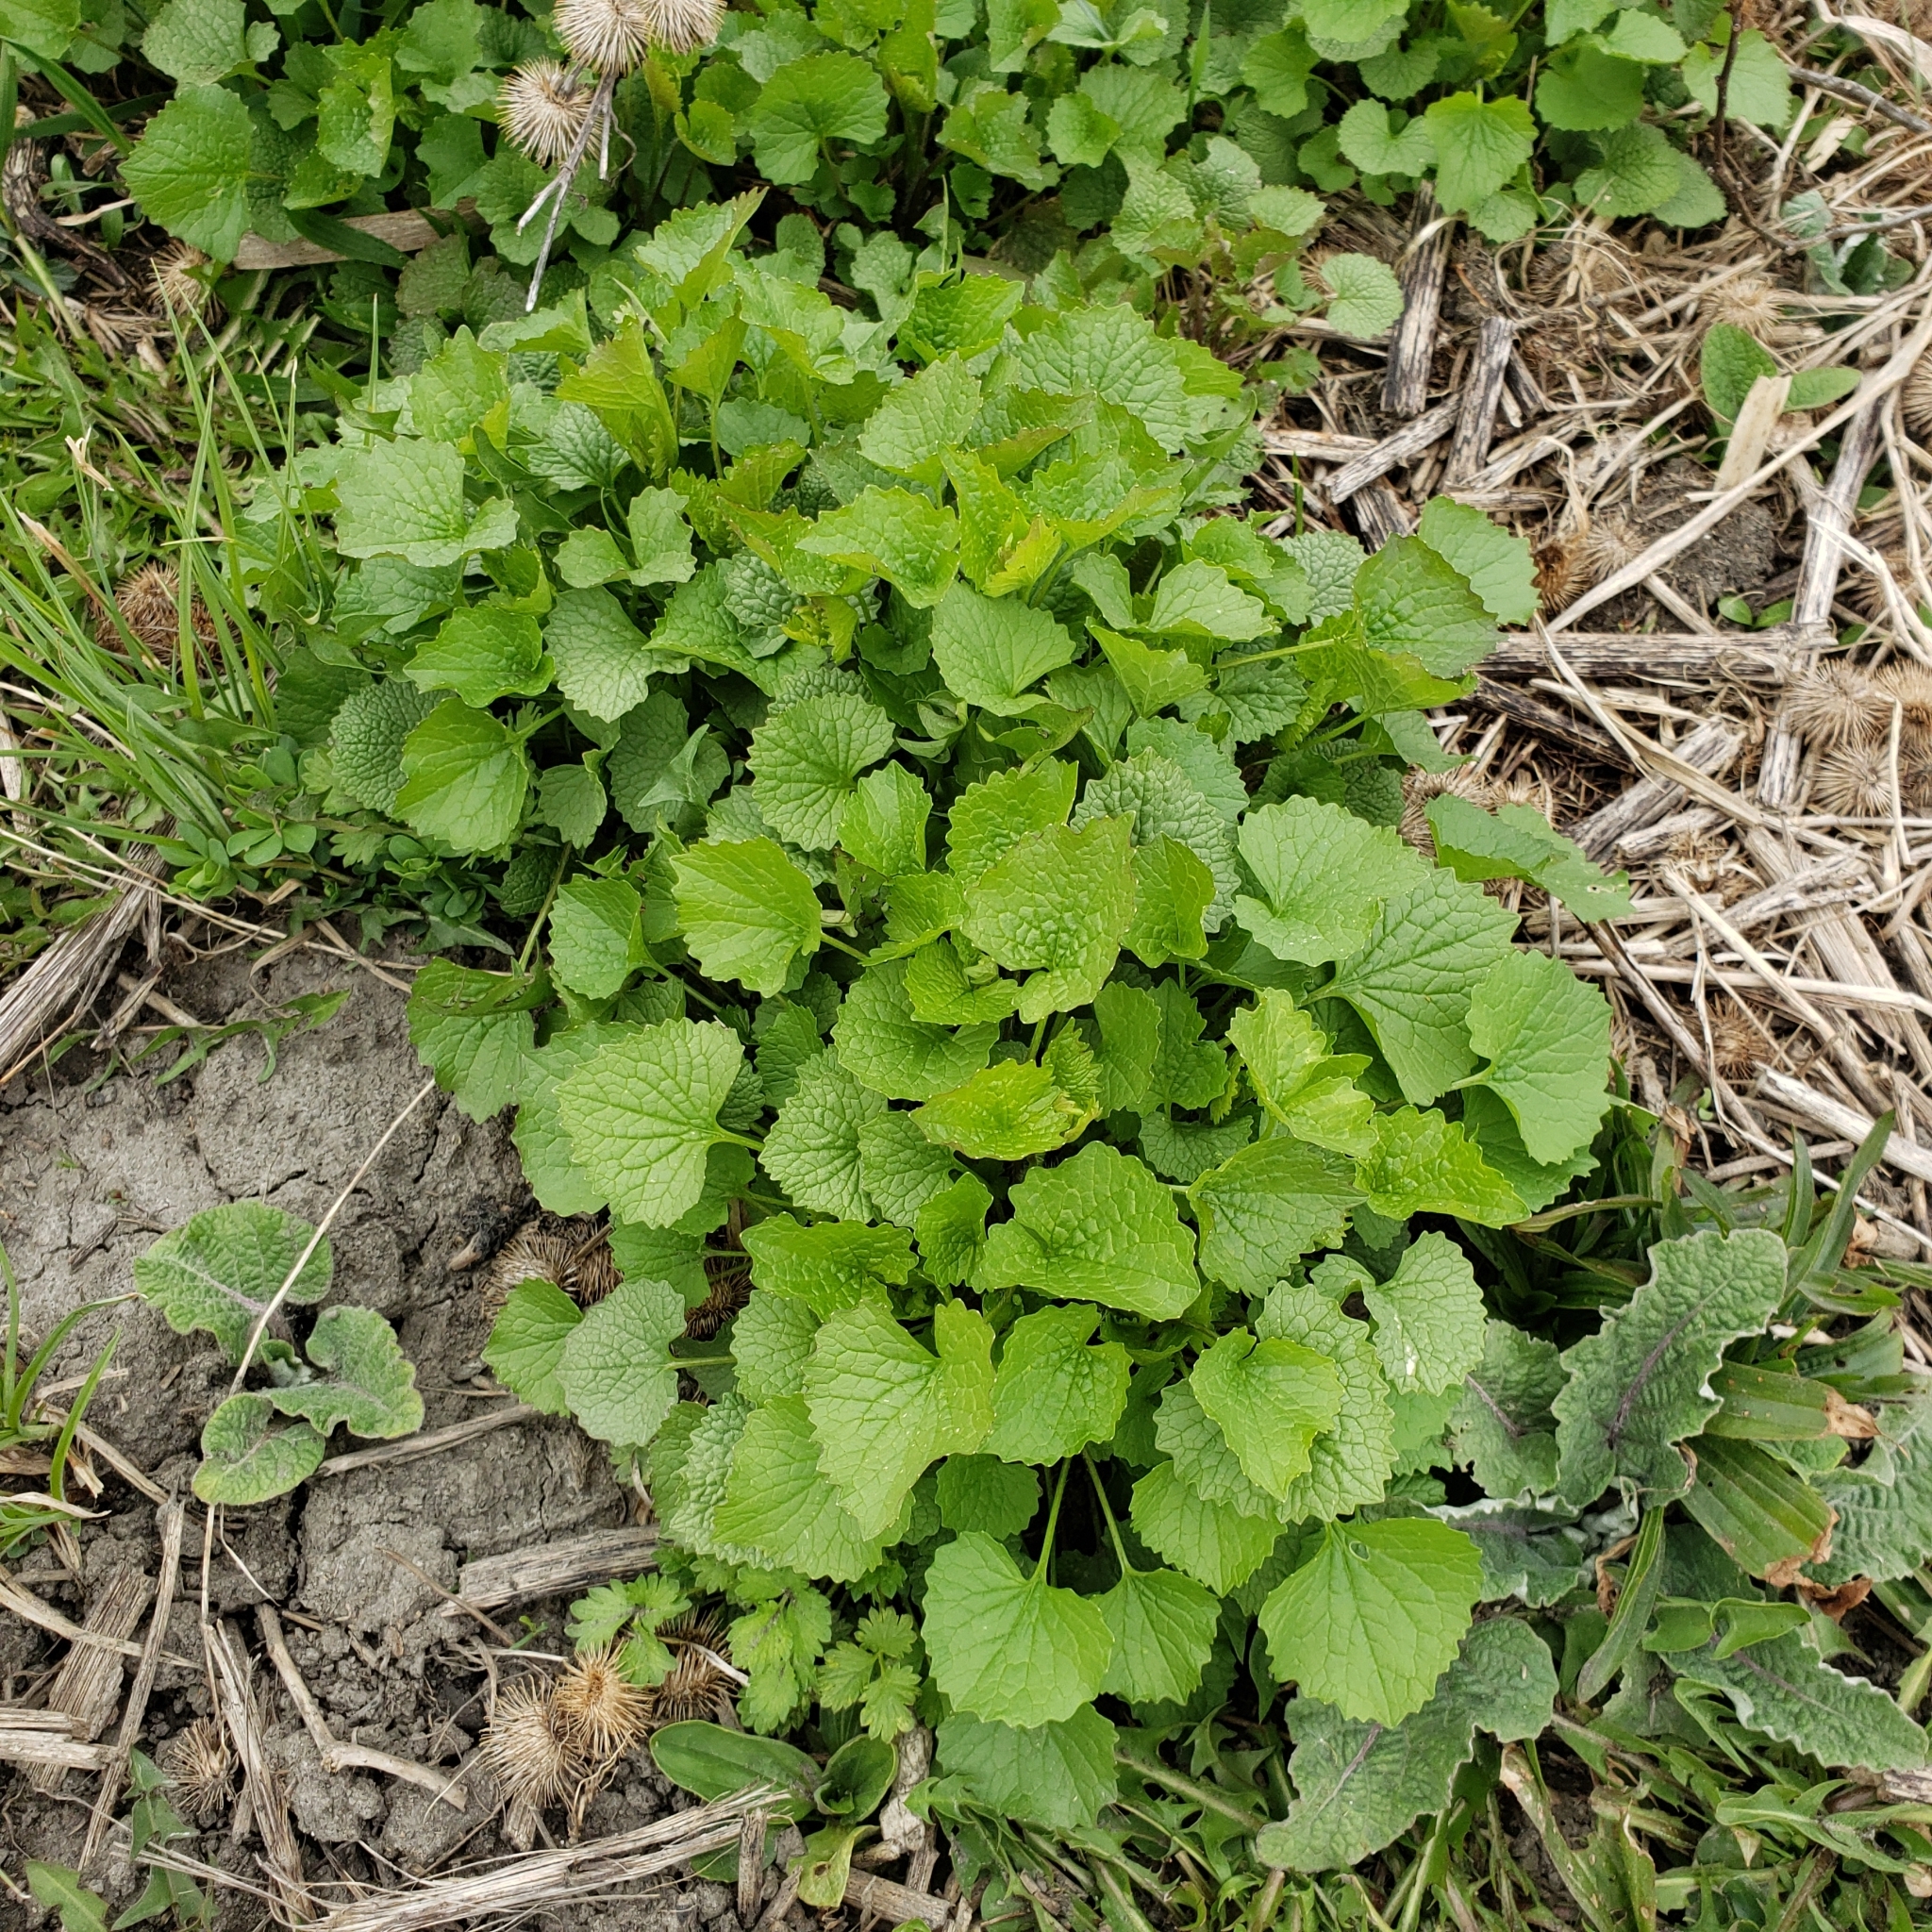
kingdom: Plantae
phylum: Tracheophyta
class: Magnoliopsida
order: Brassicales
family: Brassicaceae
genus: Alliaria
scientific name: Alliaria petiolata
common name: Garlic mustard
